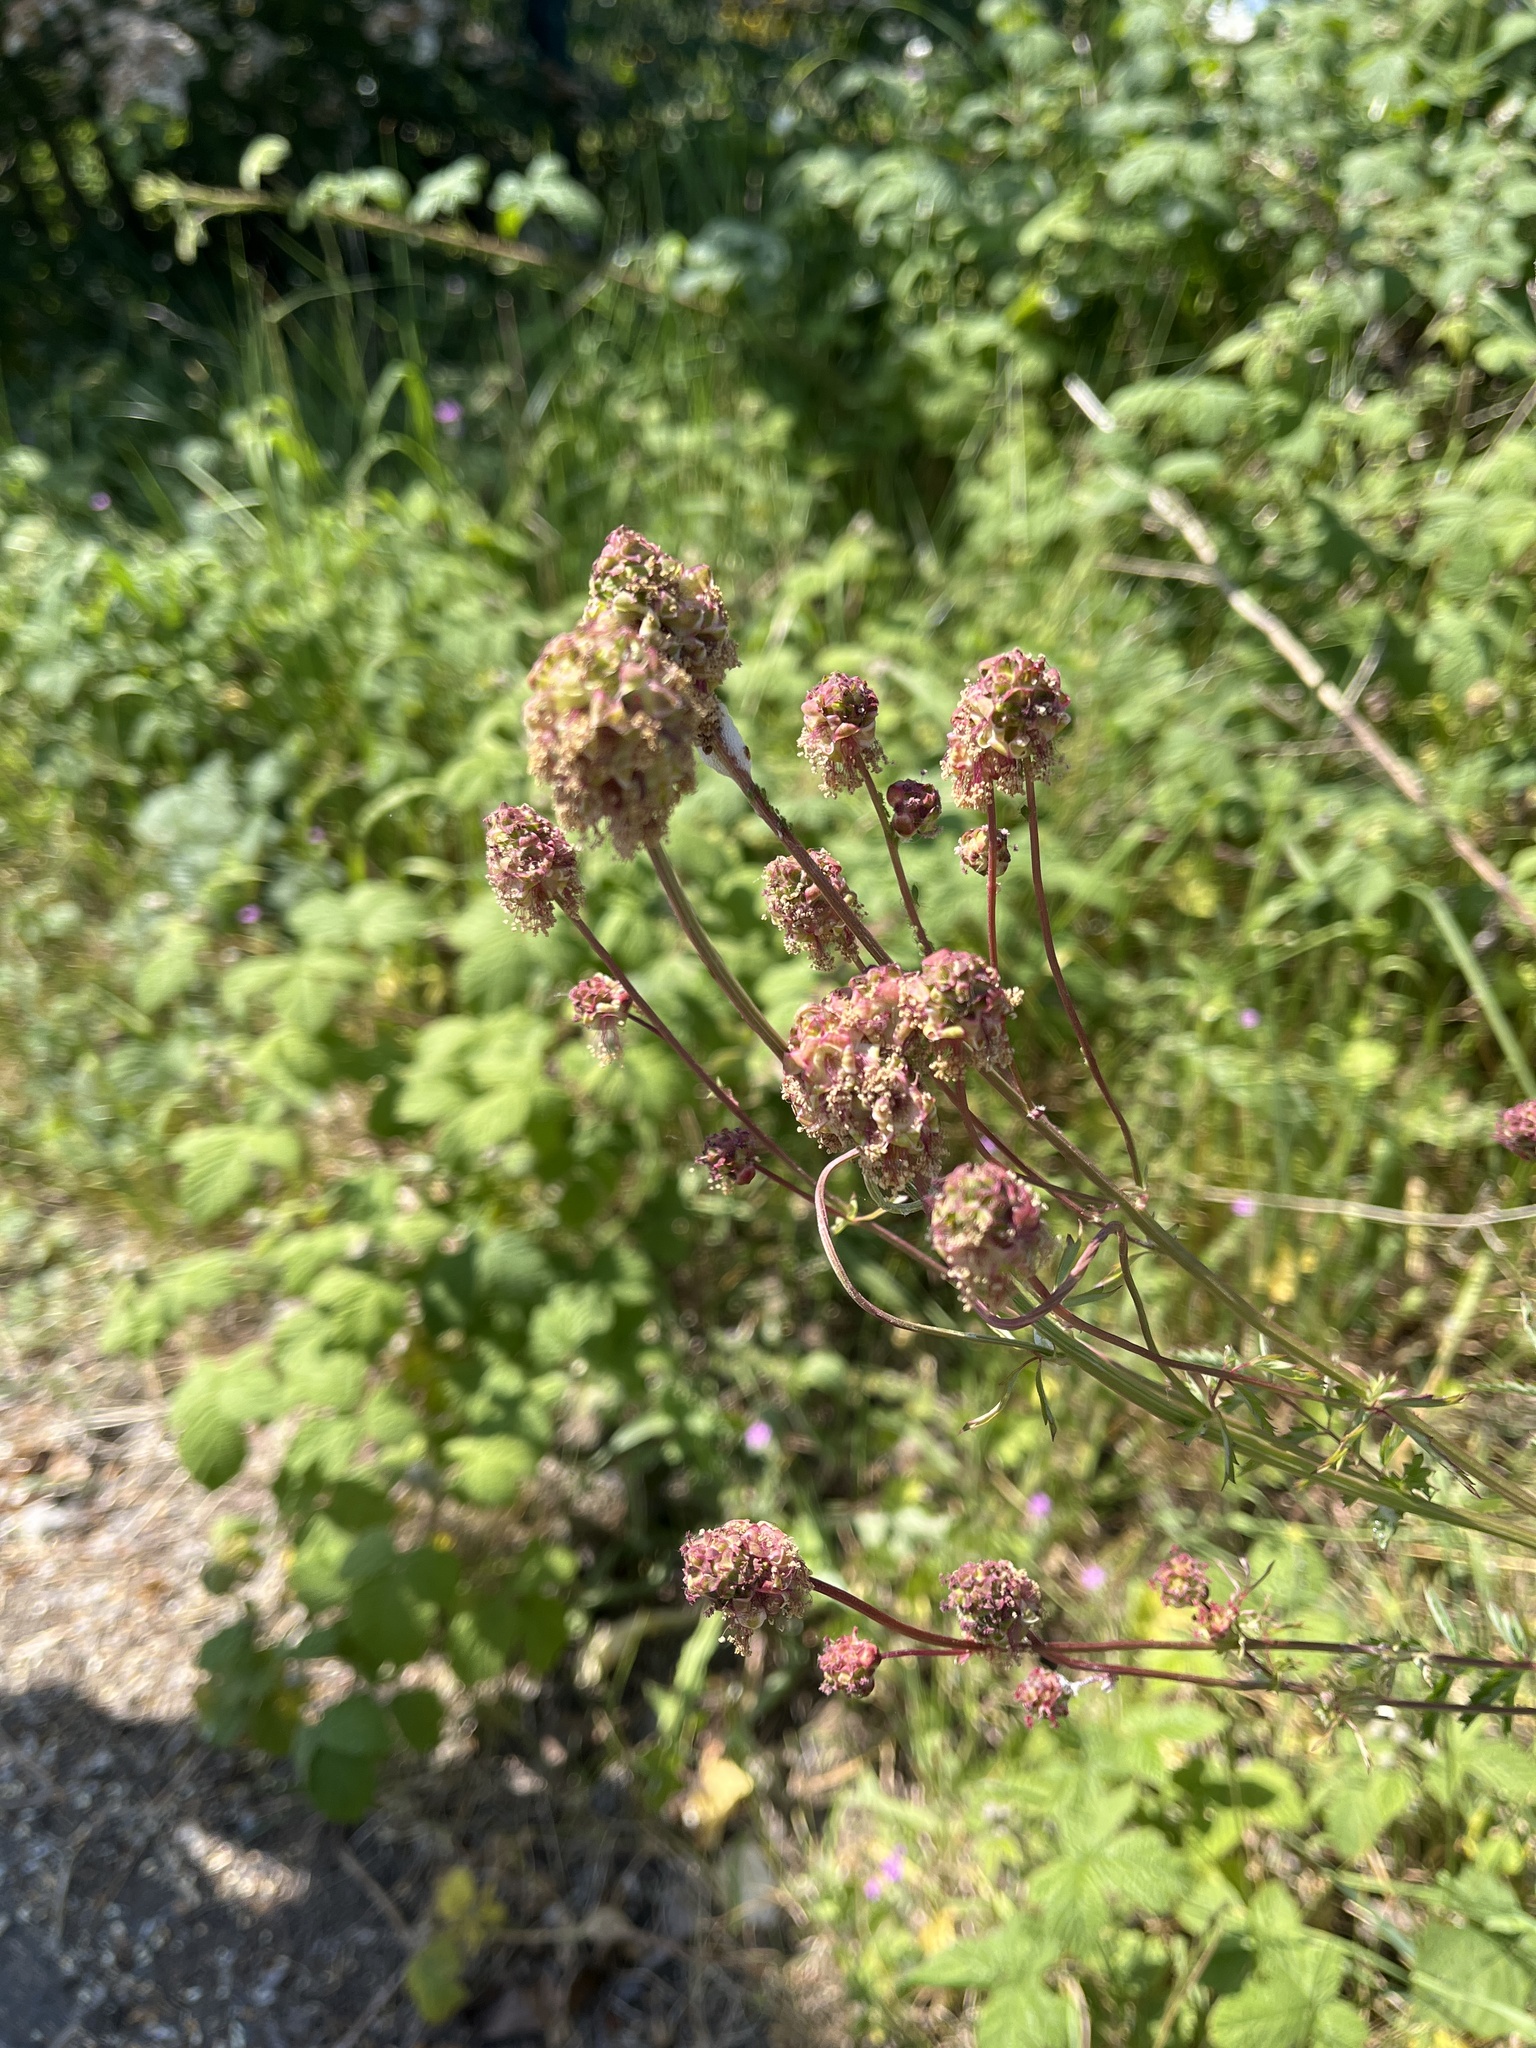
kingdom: Plantae
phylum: Tracheophyta
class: Magnoliopsida
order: Rosales
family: Rosaceae
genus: Poterium
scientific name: Poterium sanguisorba
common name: Salad burnet
